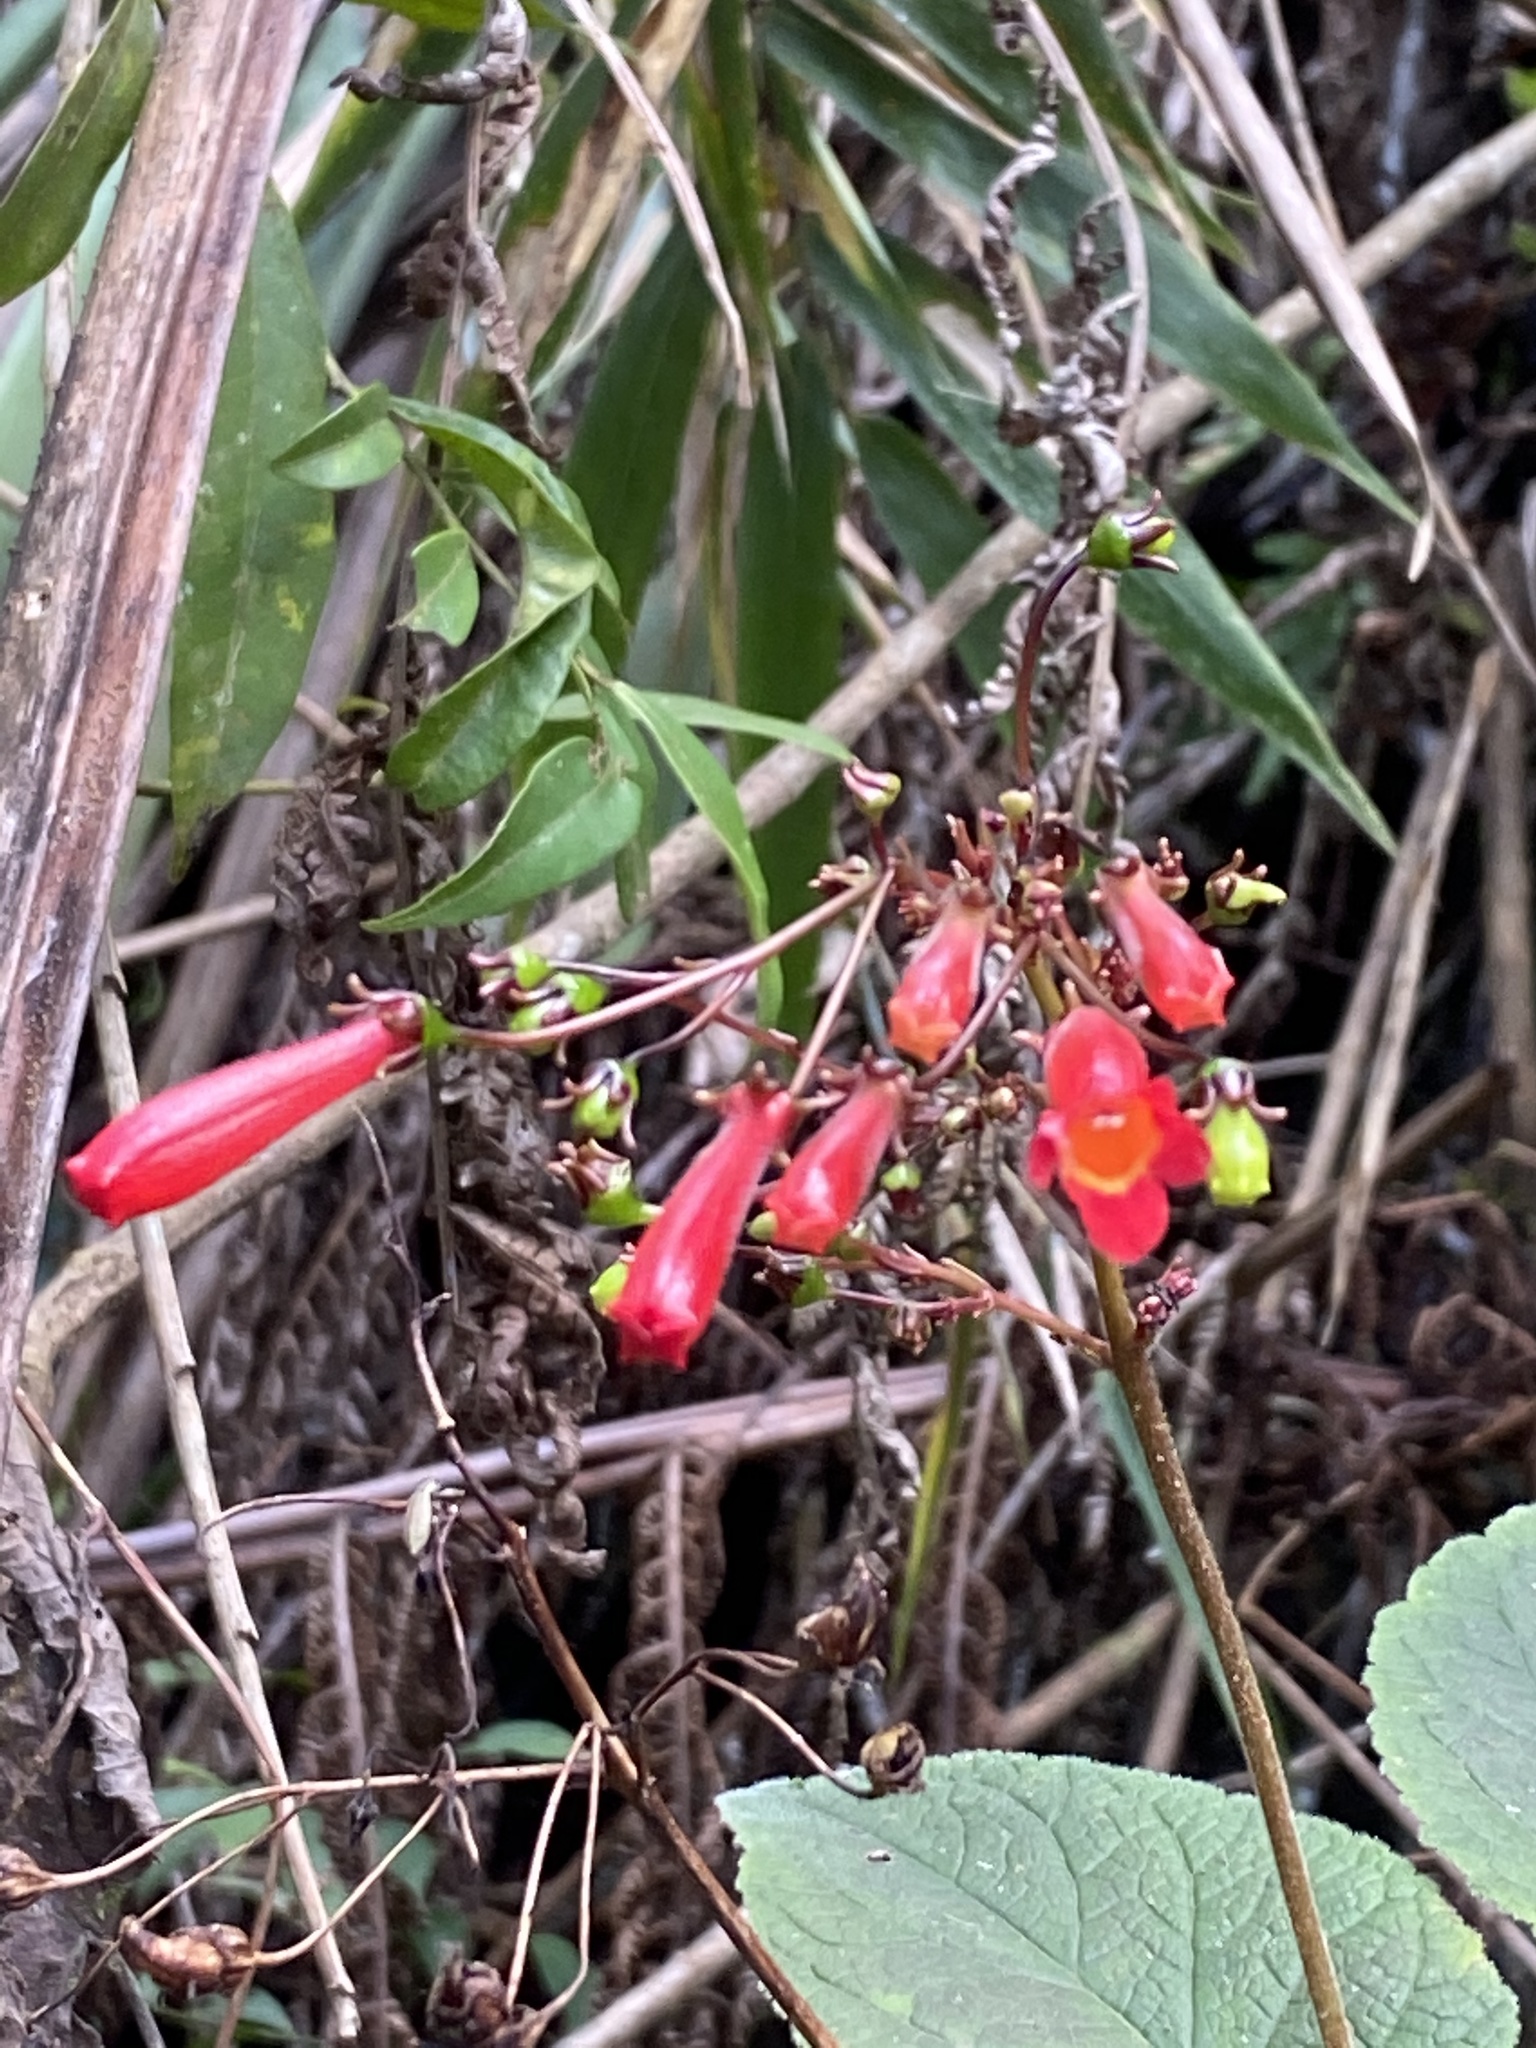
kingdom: Plantae
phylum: Tracheophyta
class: Magnoliopsida
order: Lamiales
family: Gesneriaceae
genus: Sinningia
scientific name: Sinningia gigantifolia
